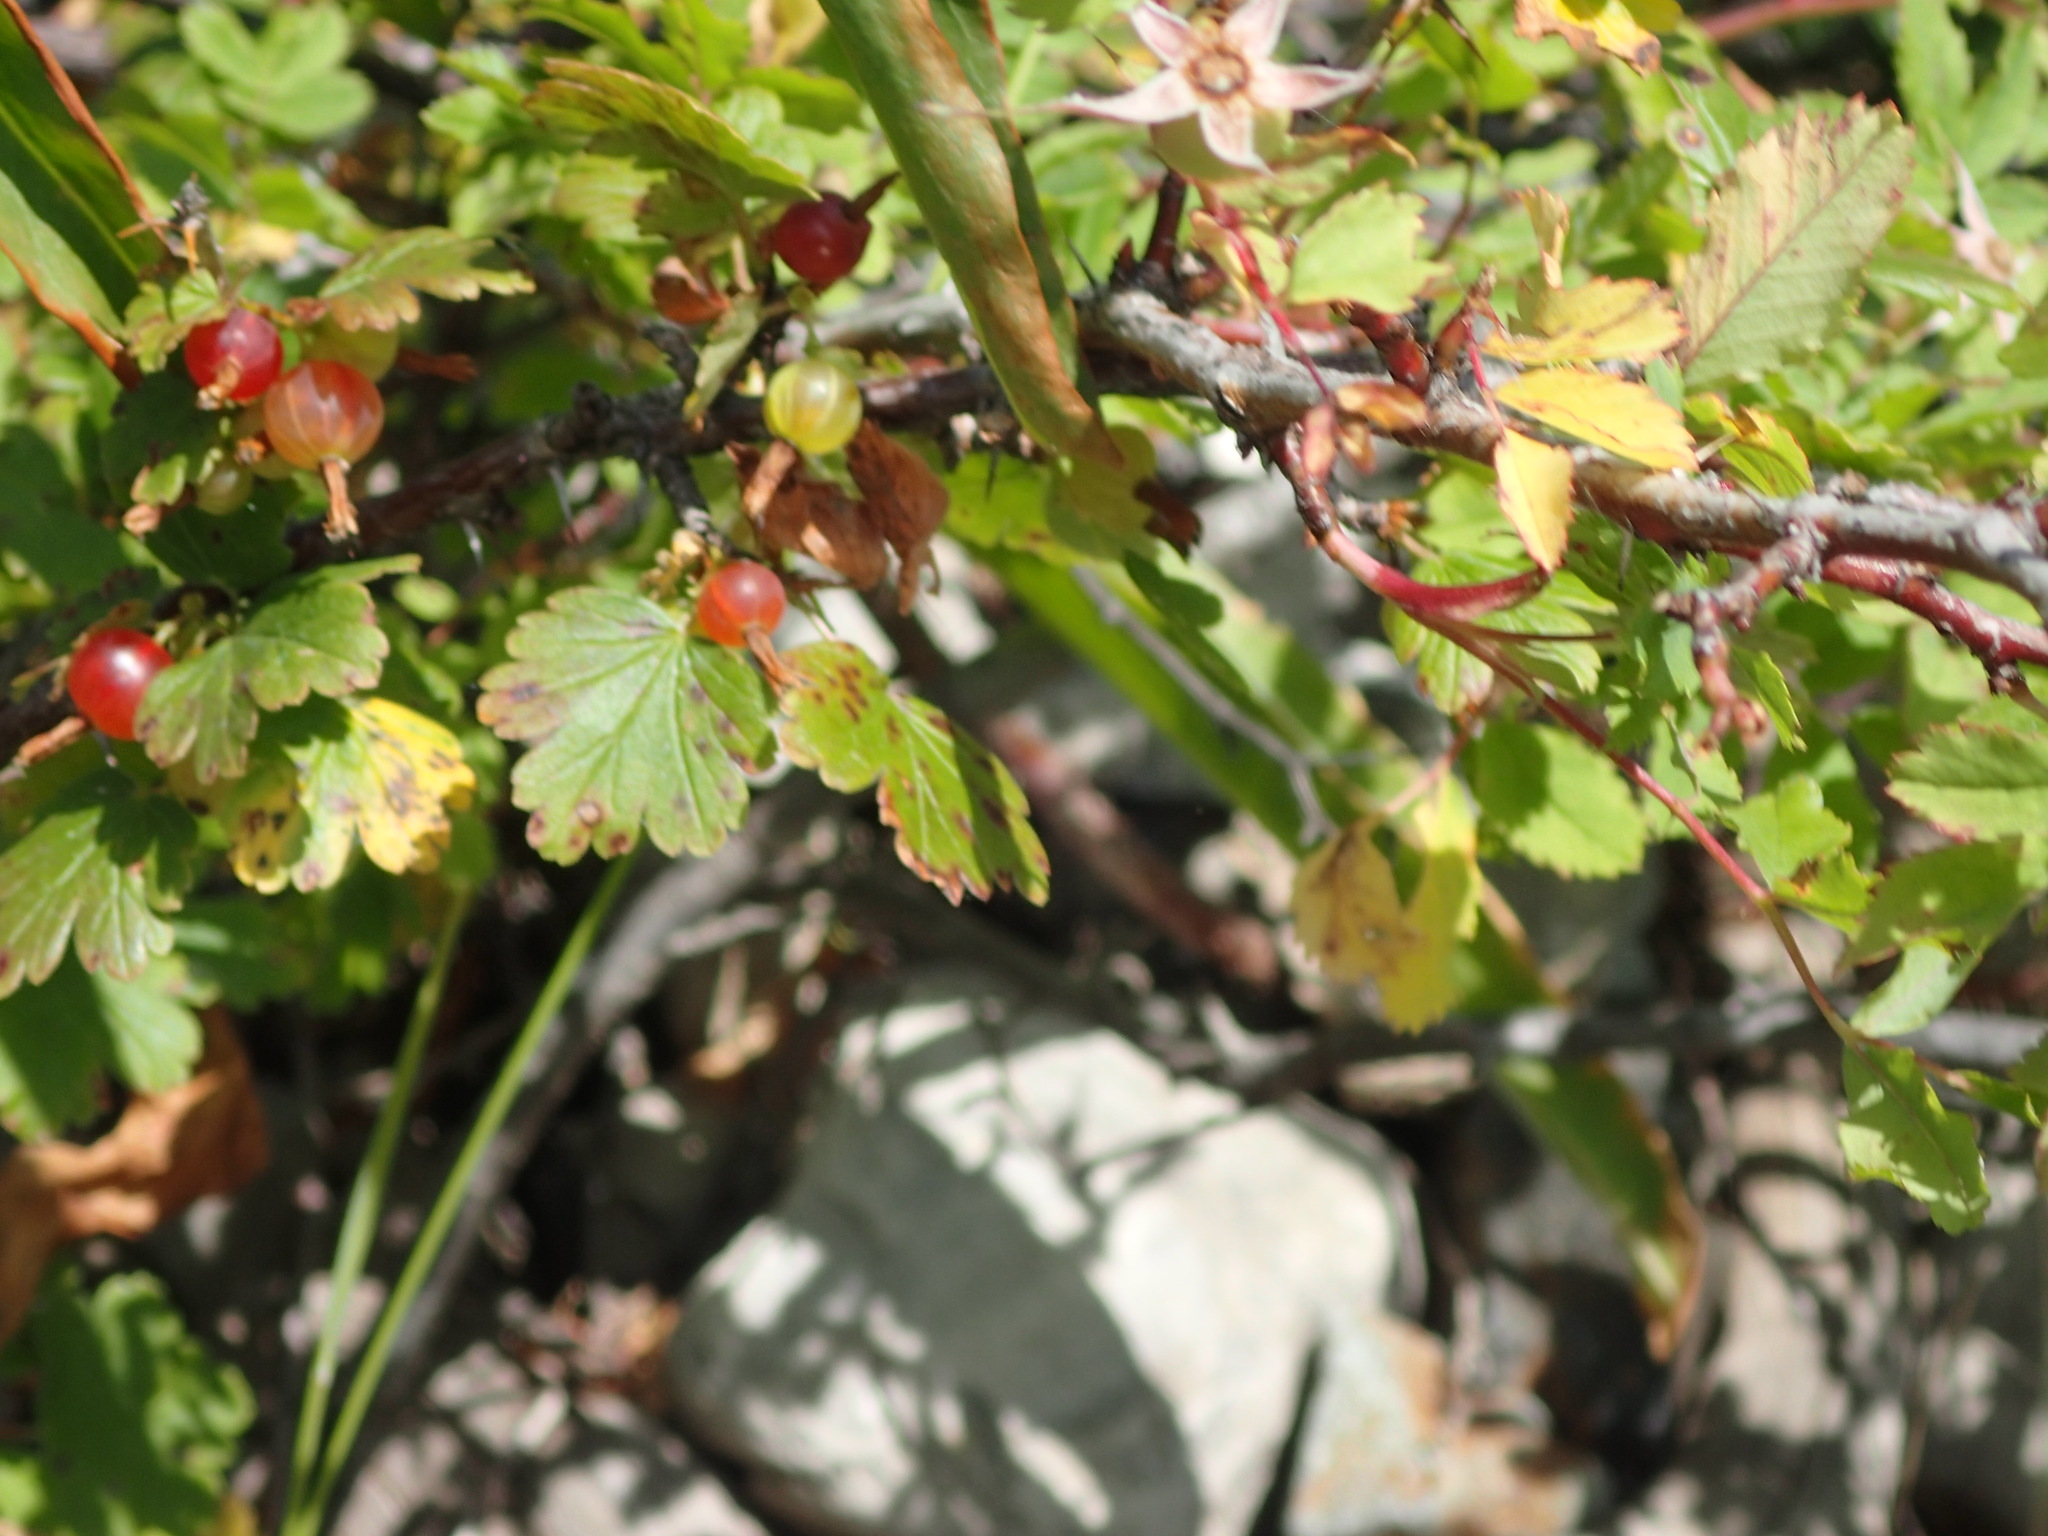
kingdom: Plantae
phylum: Tracheophyta
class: Magnoliopsida
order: Saxifragales
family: Grossulariaceae
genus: Ribes
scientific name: Ribes uva-crispa
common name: Gooseberry
